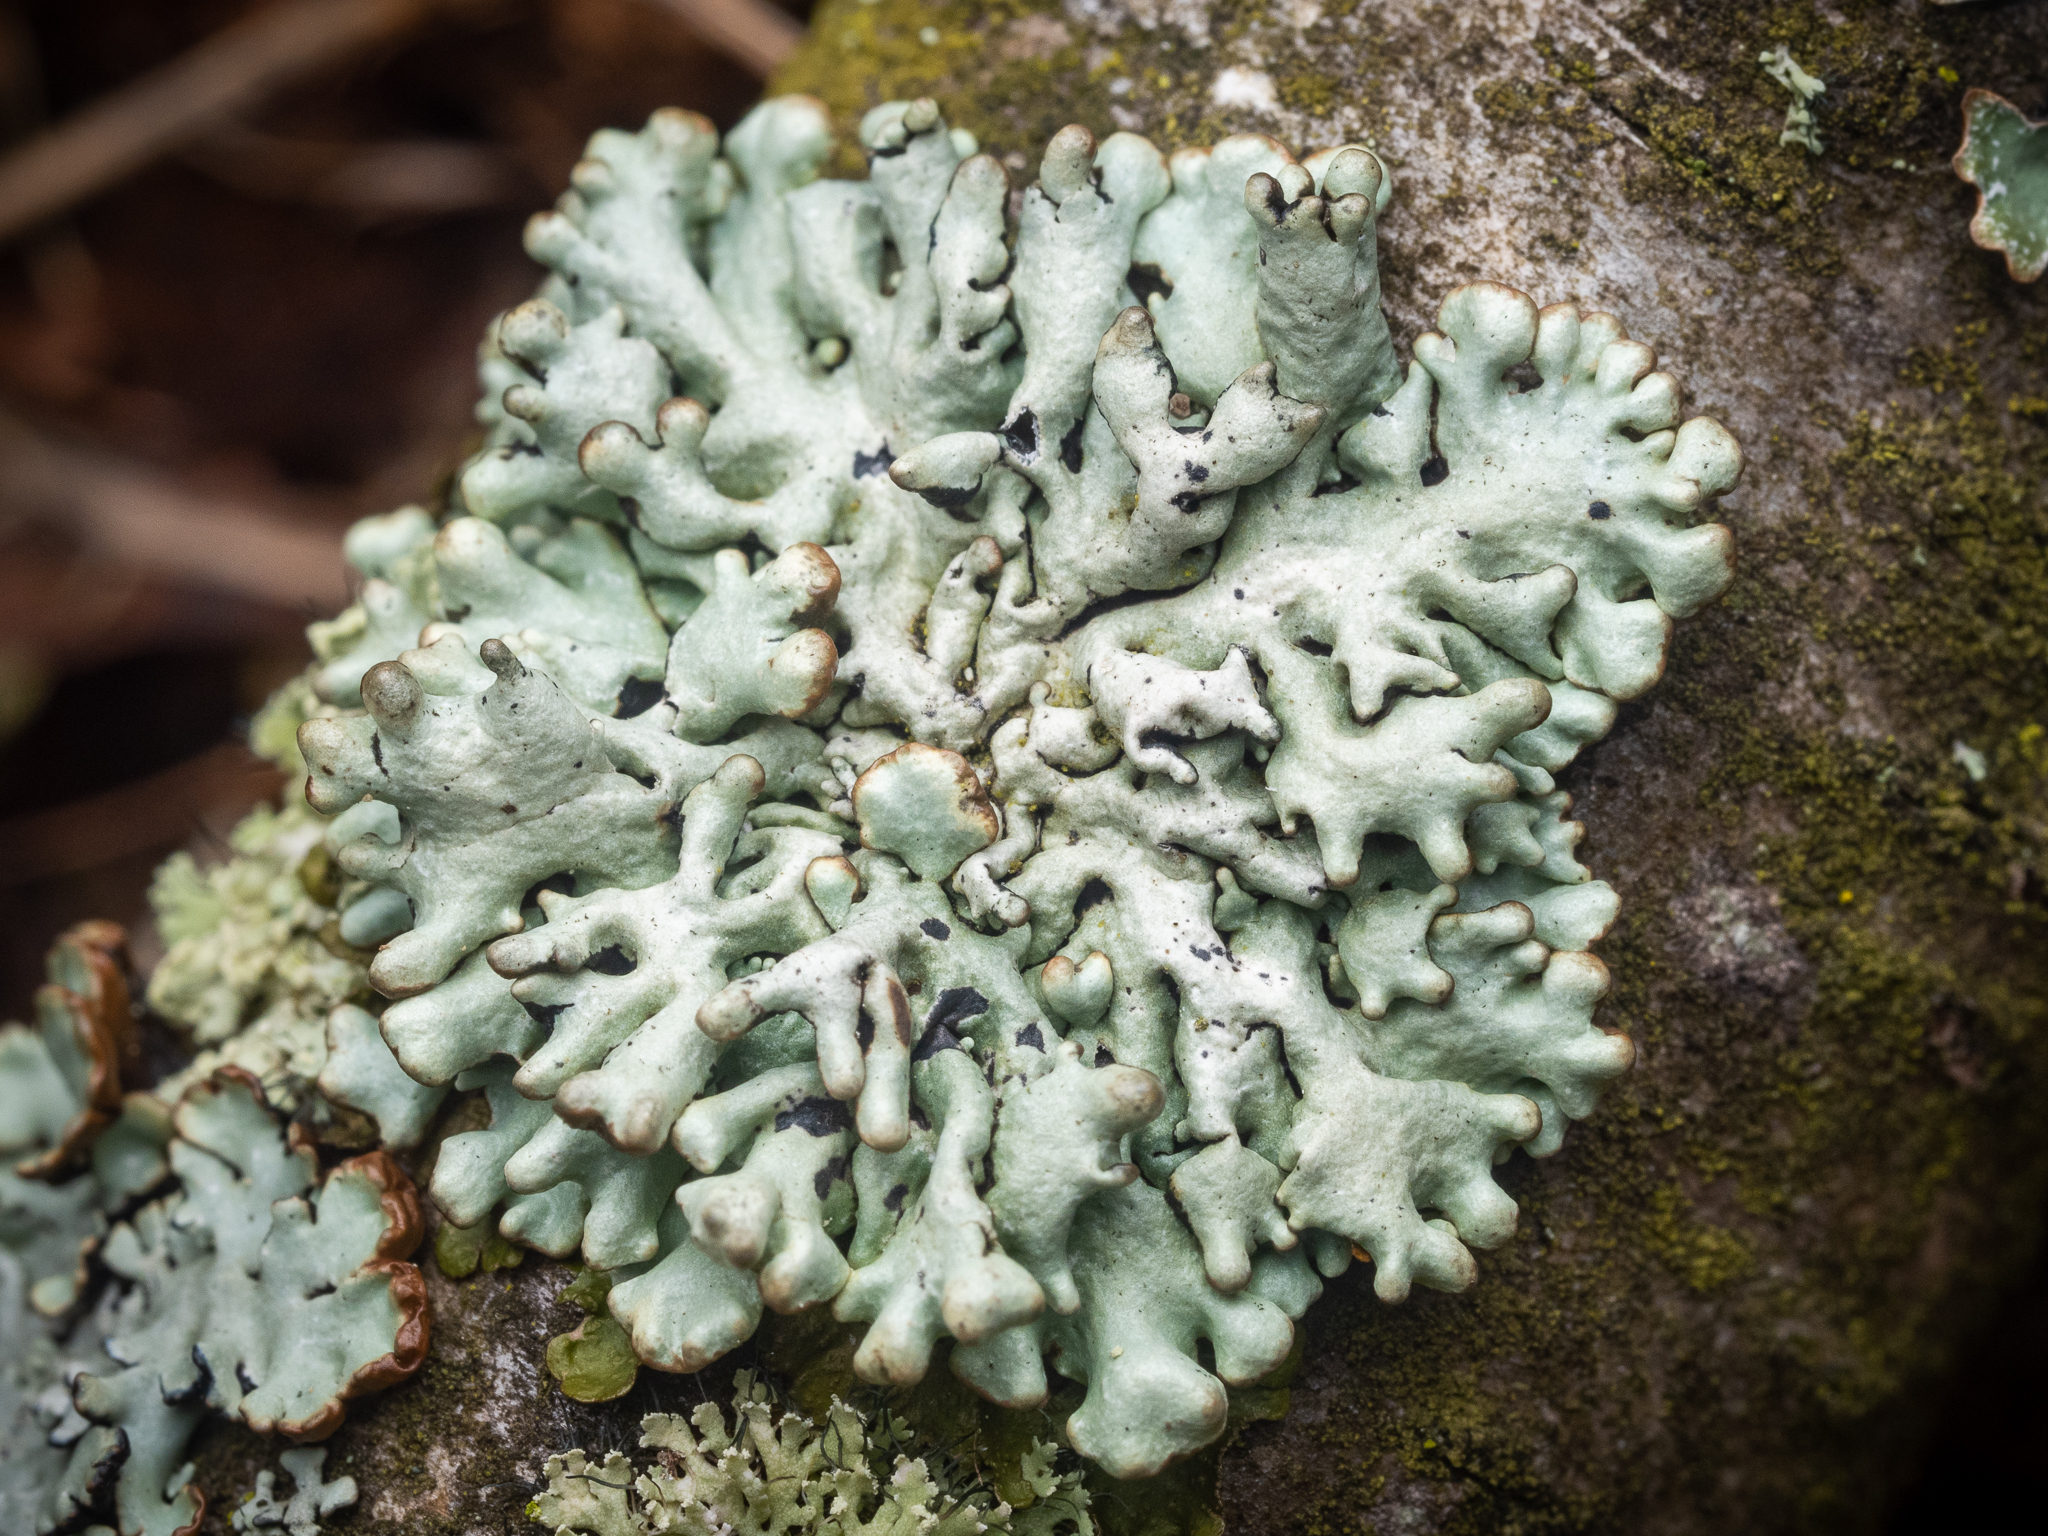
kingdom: Fungi
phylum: Ascomycota
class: Lecanoromycetes
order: Lecanorales
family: Parmeliaceae
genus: Hypogymnia
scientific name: Hypogymnia tubulosa
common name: Powder-headed tube lichen
